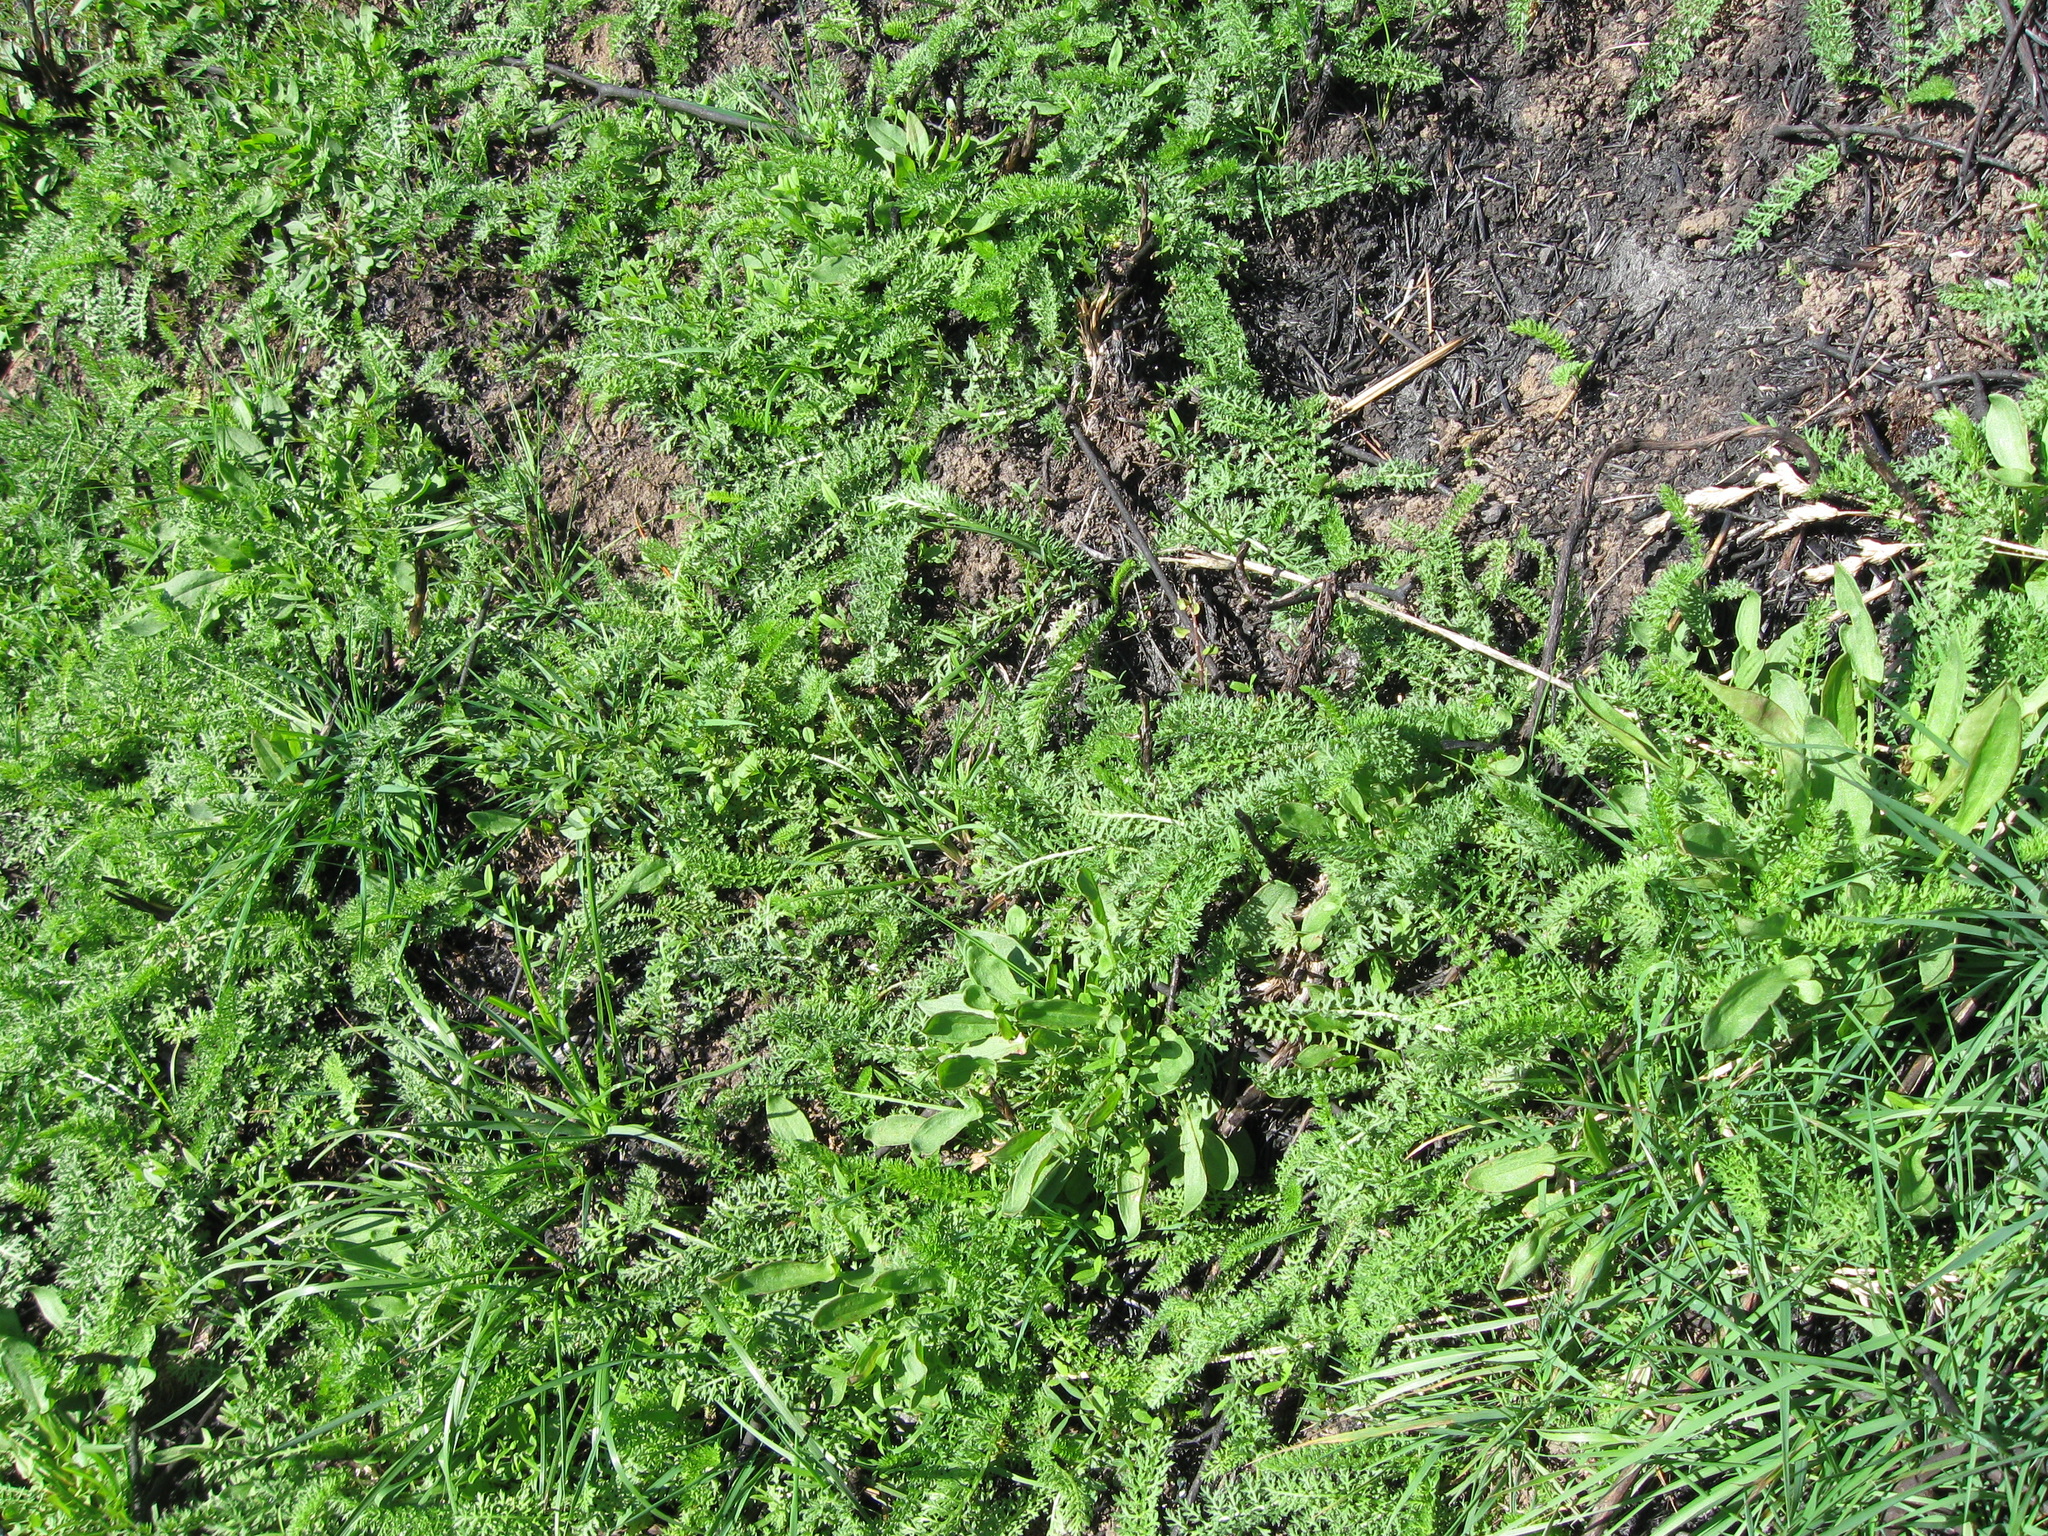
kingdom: Plantae
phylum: Tracheophyta
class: Magnoliopsida
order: Asterales
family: Asteraceae
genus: Achillea
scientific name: Achillea millefolium
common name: Yarrow
